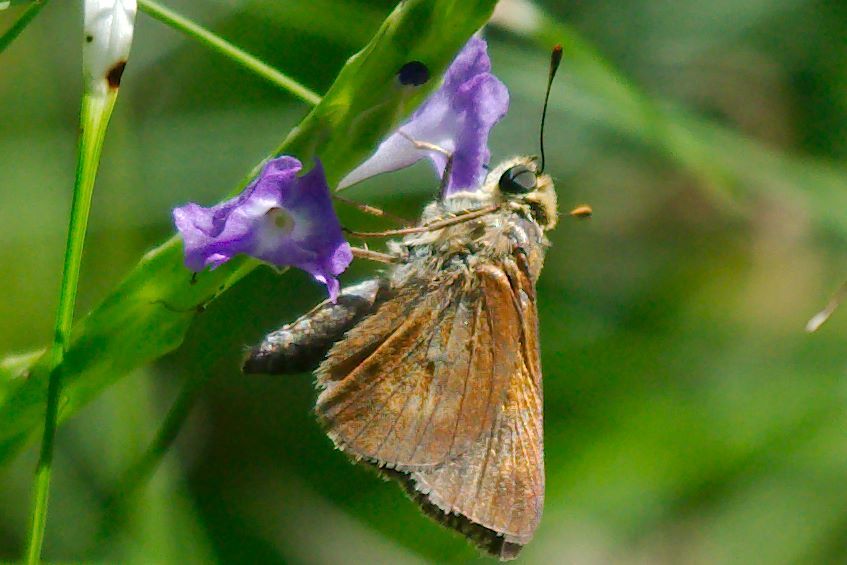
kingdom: Animalia
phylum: Arthropoda
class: Insecta
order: Lepidoptera
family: Hesperiidae
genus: Polites
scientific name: Polites otho
